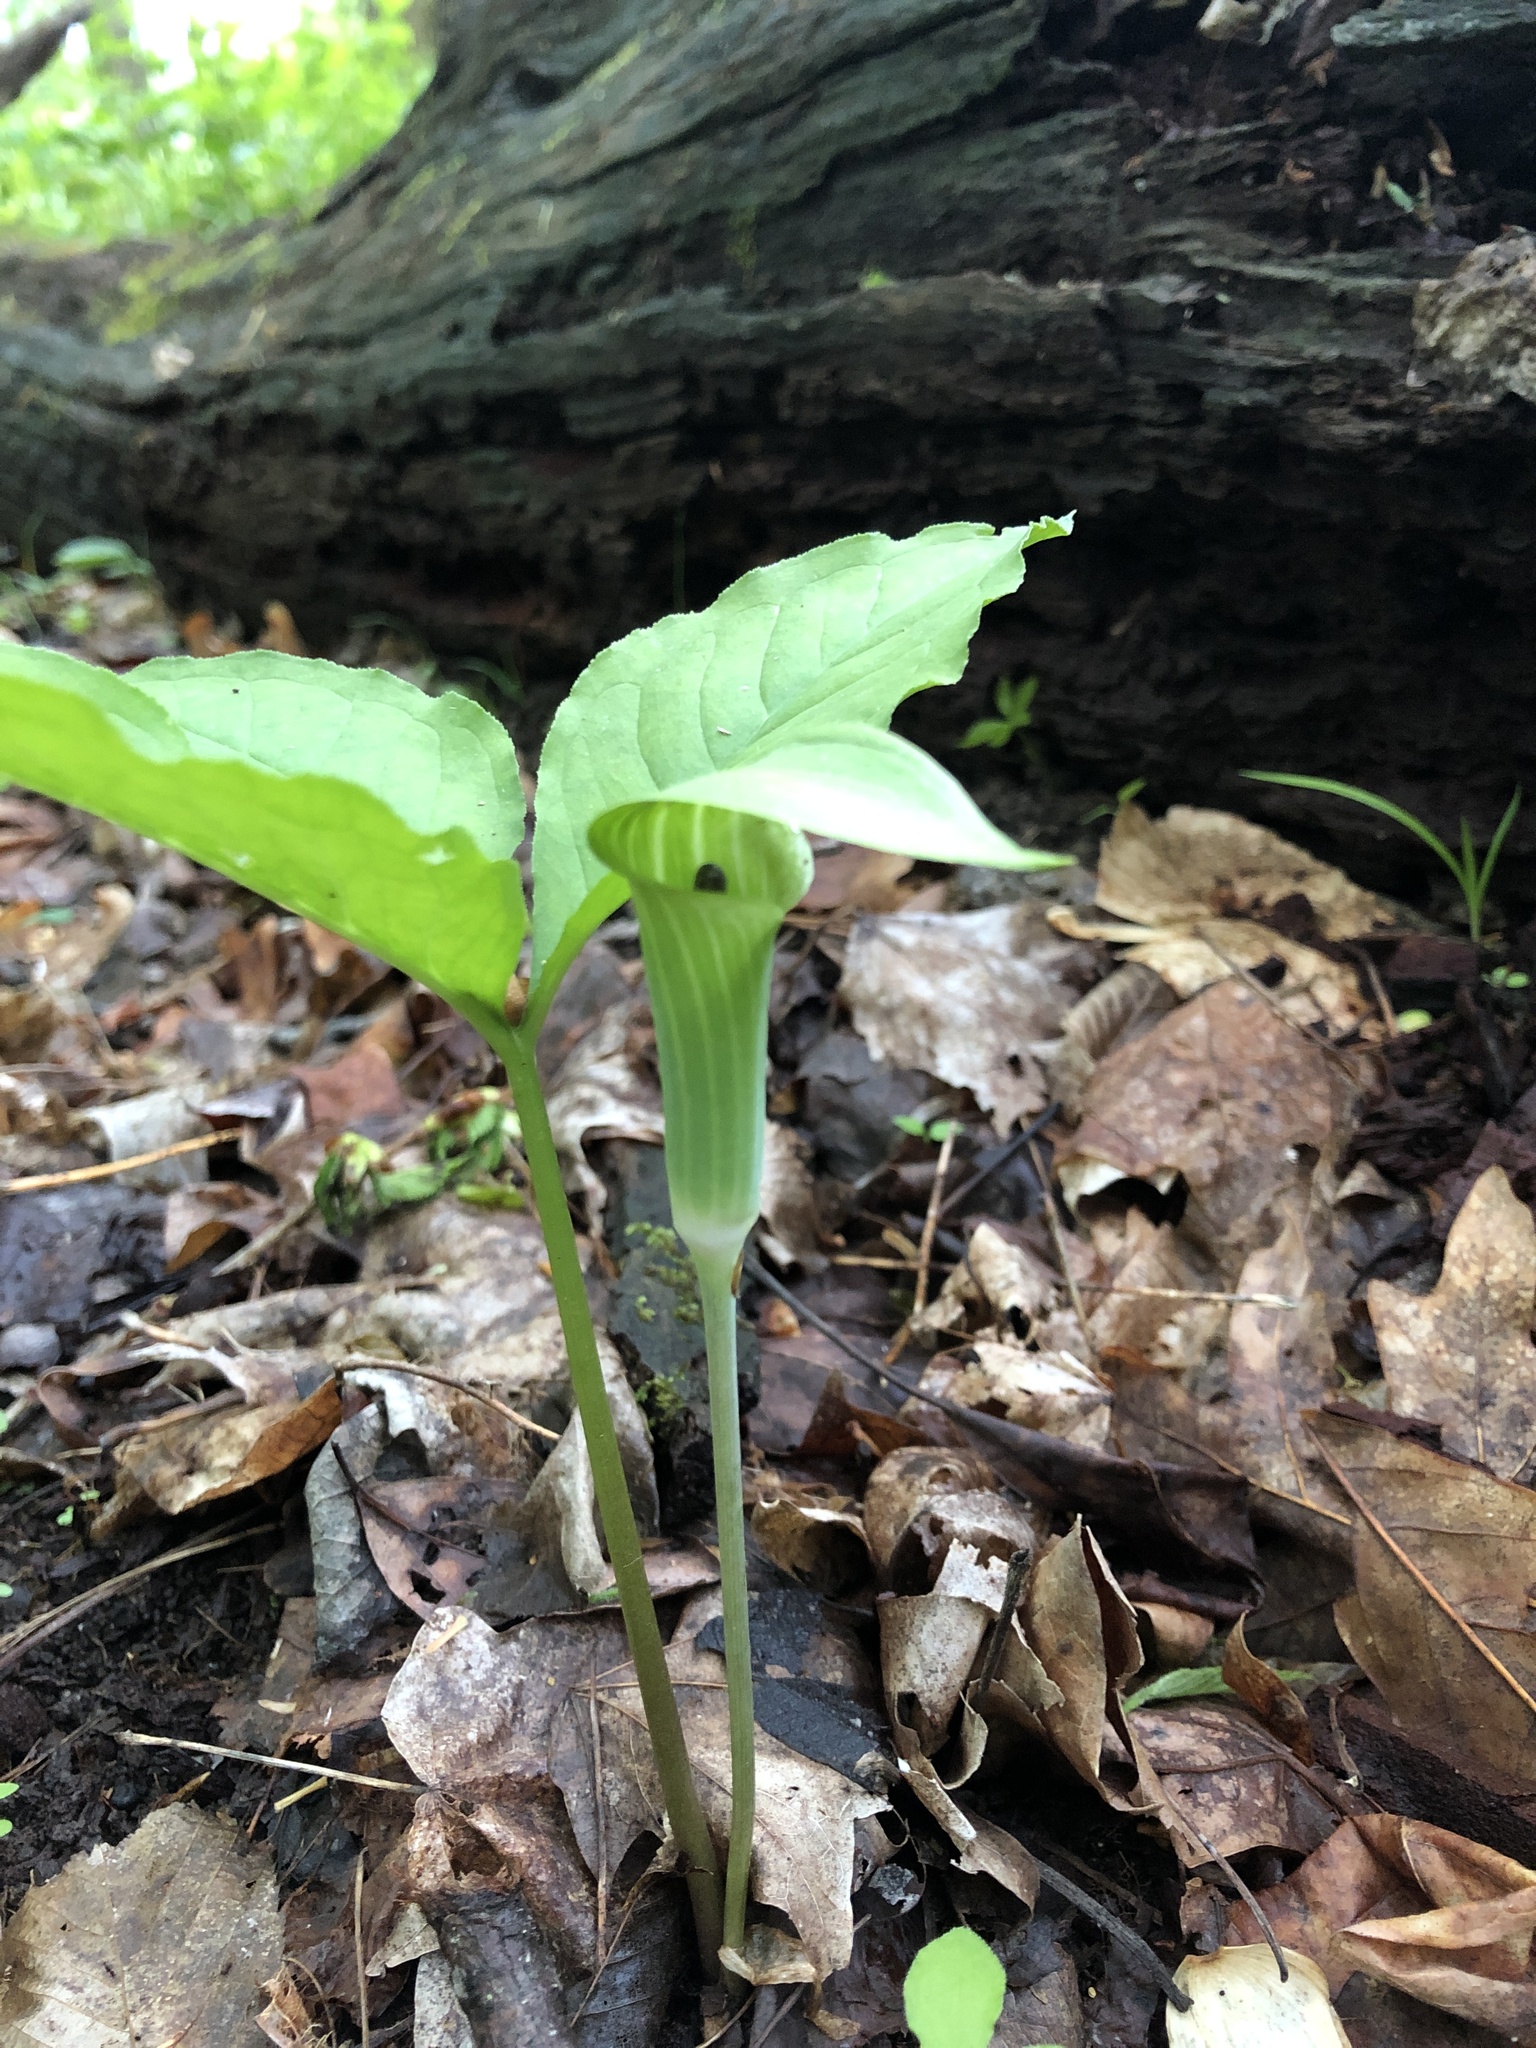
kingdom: Plantae
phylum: Tracheophyta
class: Liliopsida
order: Alismatales
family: Araceae
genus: Arisaema
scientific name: Arisaema triphyllum
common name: Jack-in-the-pulpit
